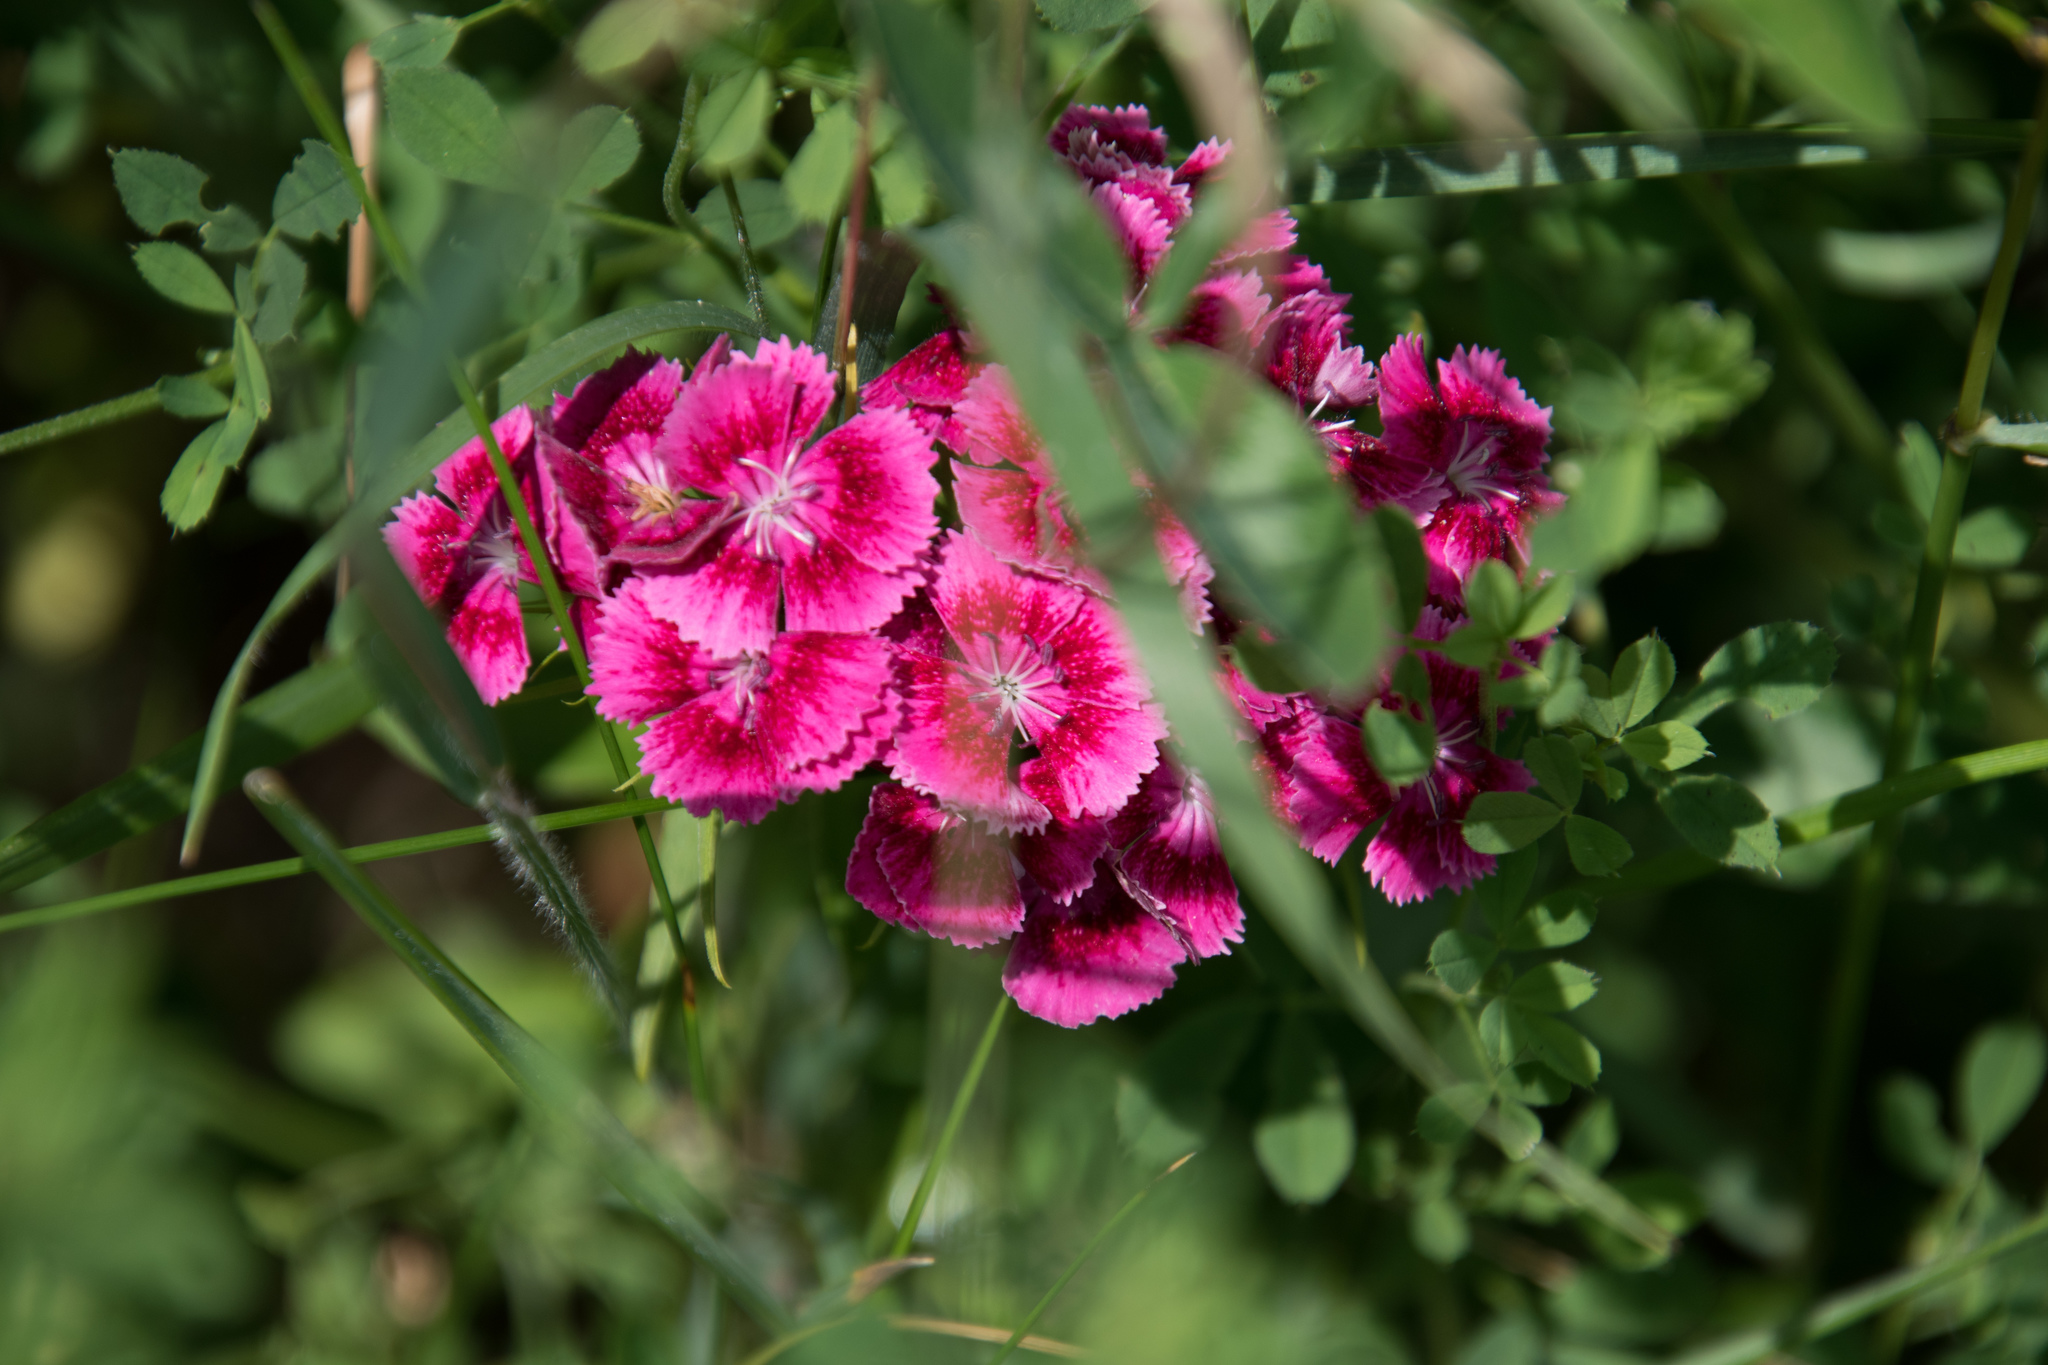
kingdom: Plantae
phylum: Tracheophyta
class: Magnoliopsida
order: Caryophyllales
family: Caryophyllaceae
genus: Dianthus
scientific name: Dianthus barbatus
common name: Sweet-william
